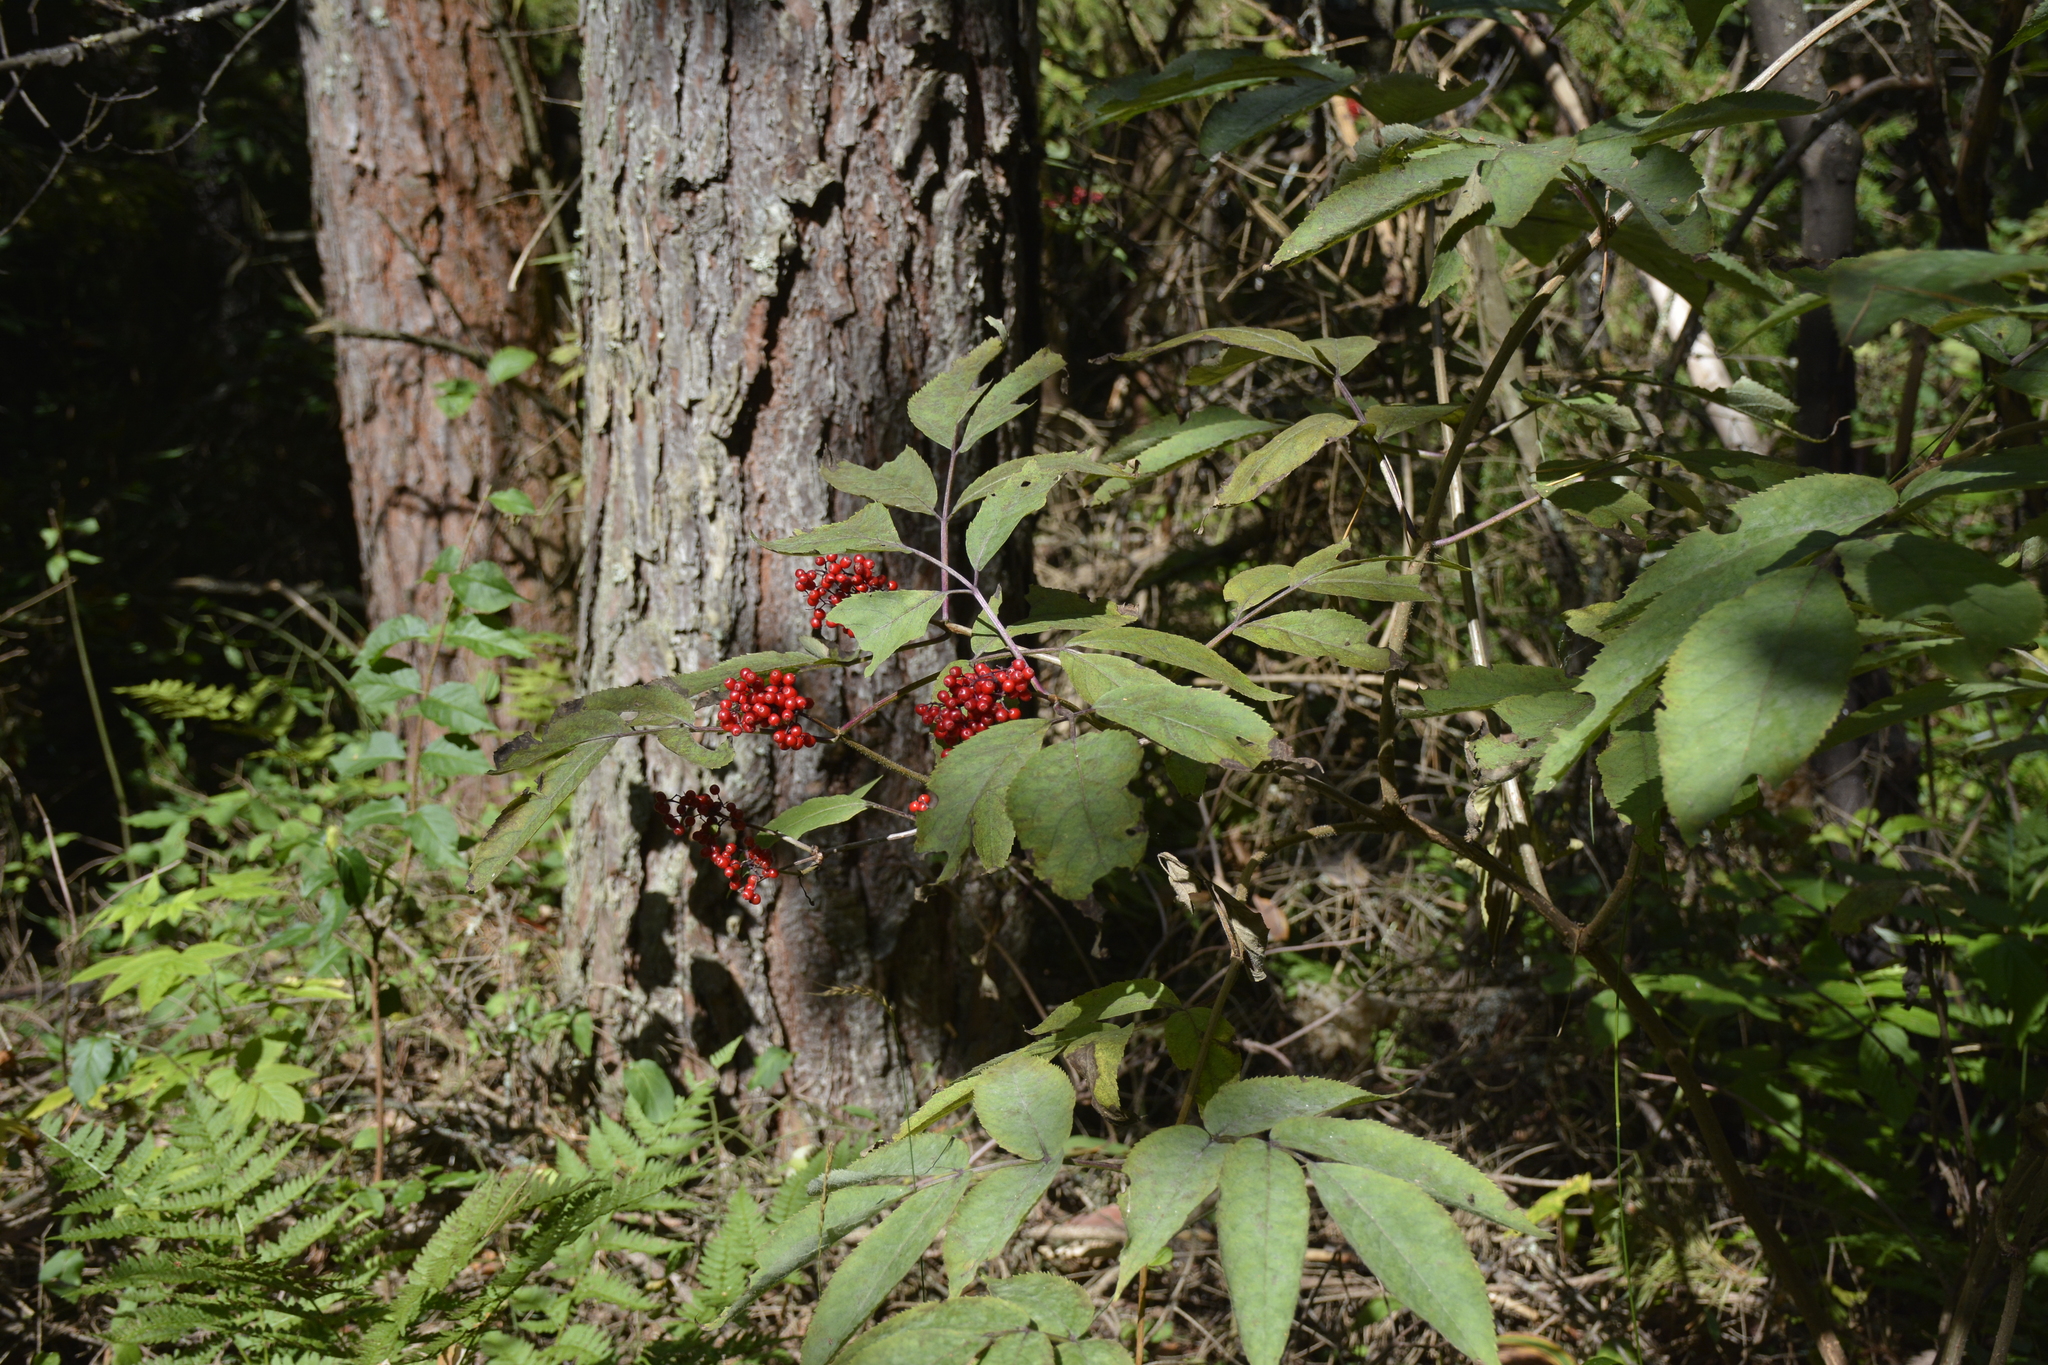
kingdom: Plantae
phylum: Tracheophyta
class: Magnoliopsida
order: Dipsacales
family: Viburnaceae
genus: Sambucus
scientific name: Sambucus racemosa
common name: Red-berried elder
